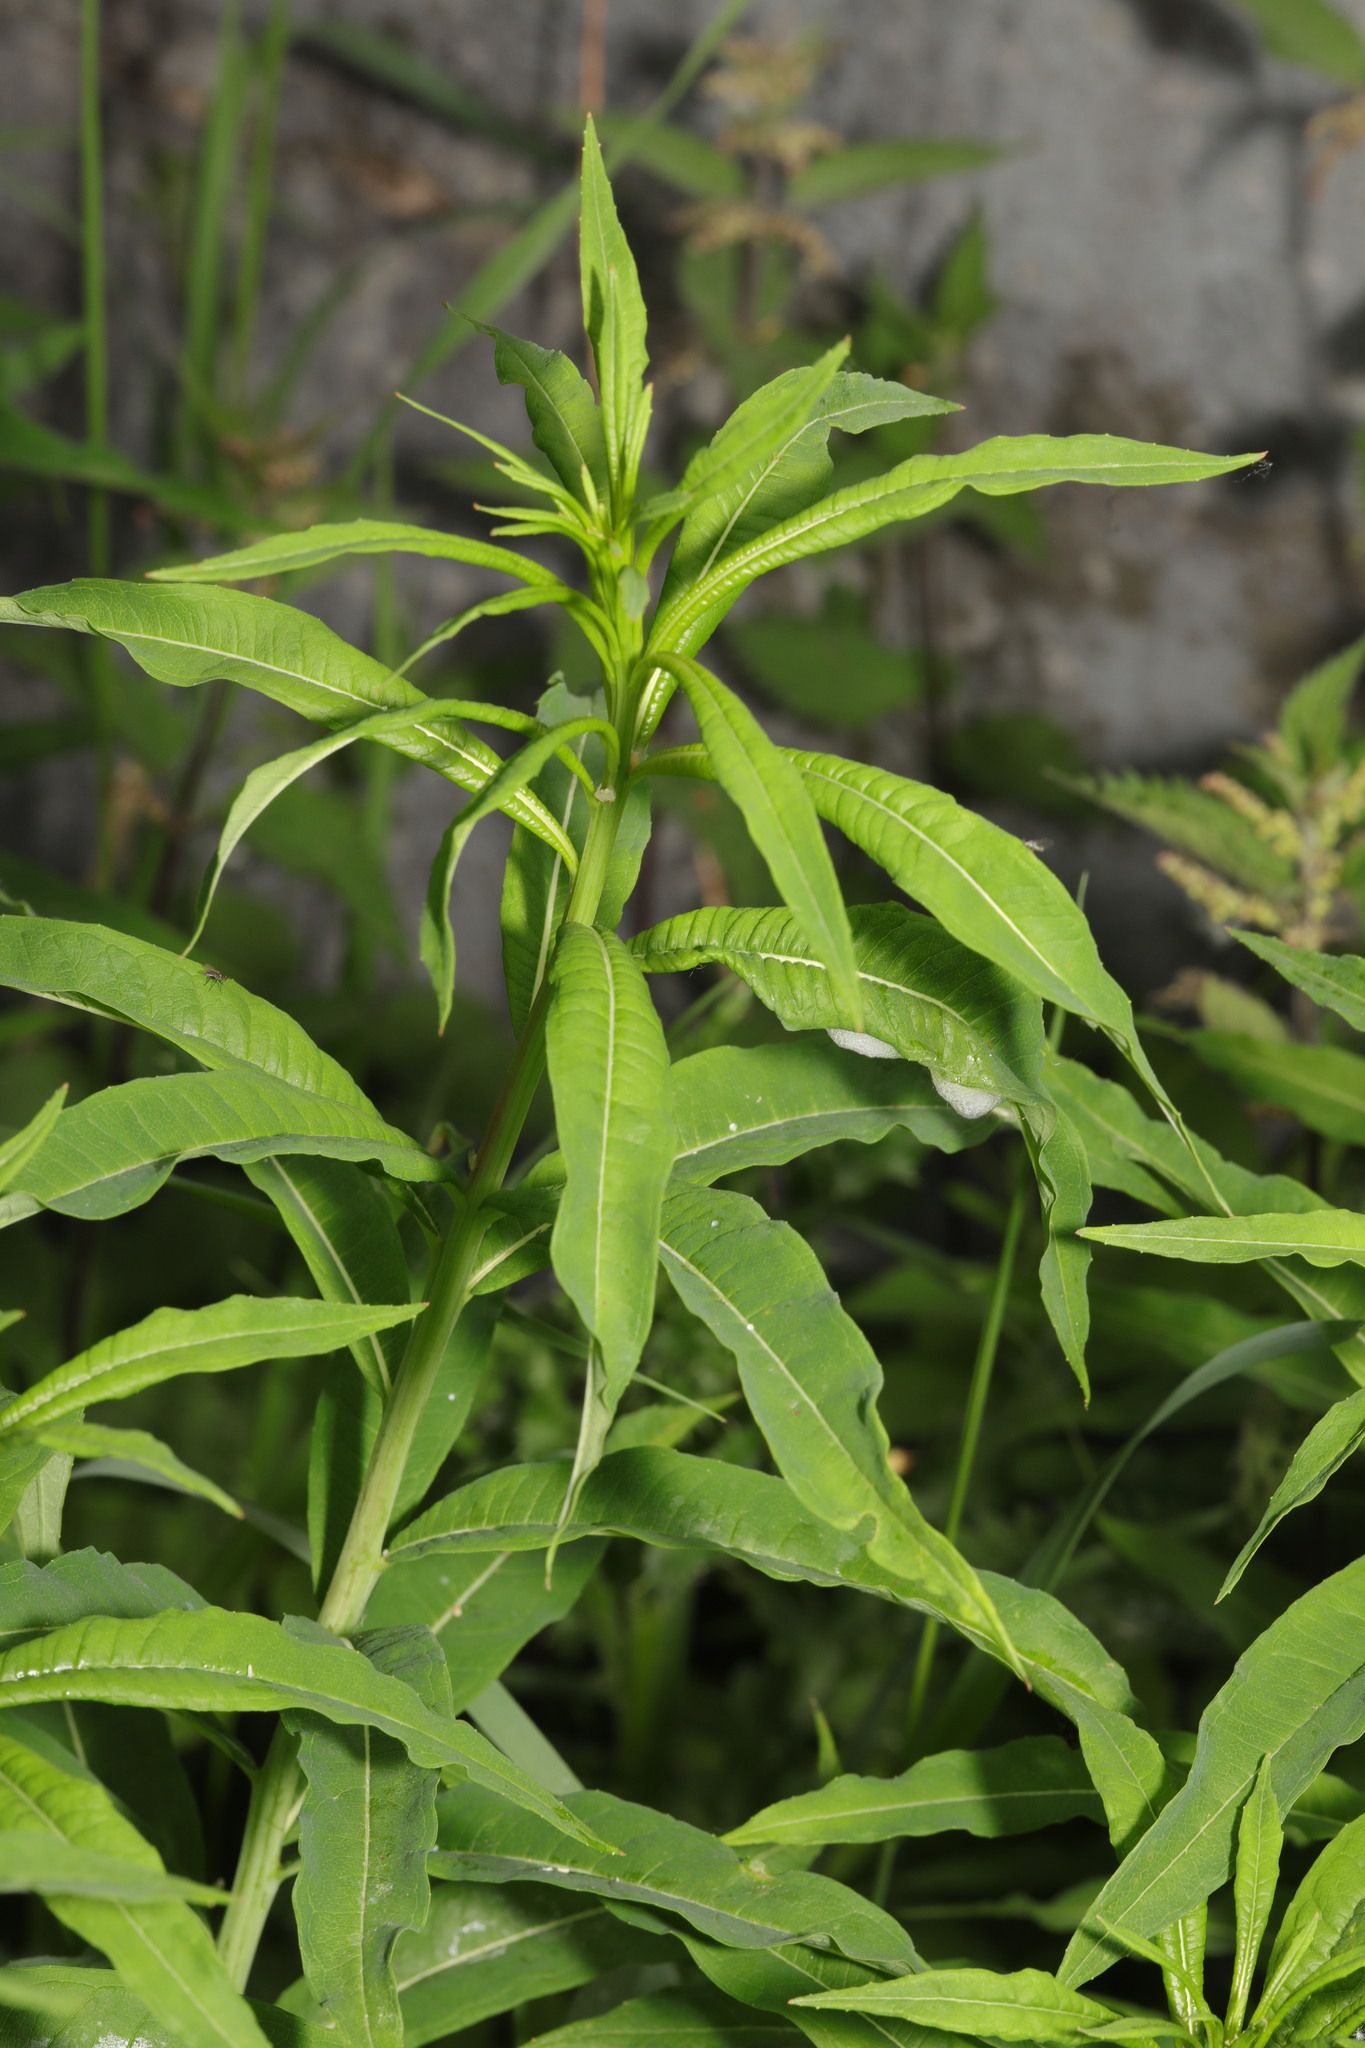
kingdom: Plantae
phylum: Tracheophyta
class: Magnoliopsida
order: Myrtales
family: Onagraceae
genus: Chamaenerion
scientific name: Chamaenerion angustifolium
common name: Fireweed
